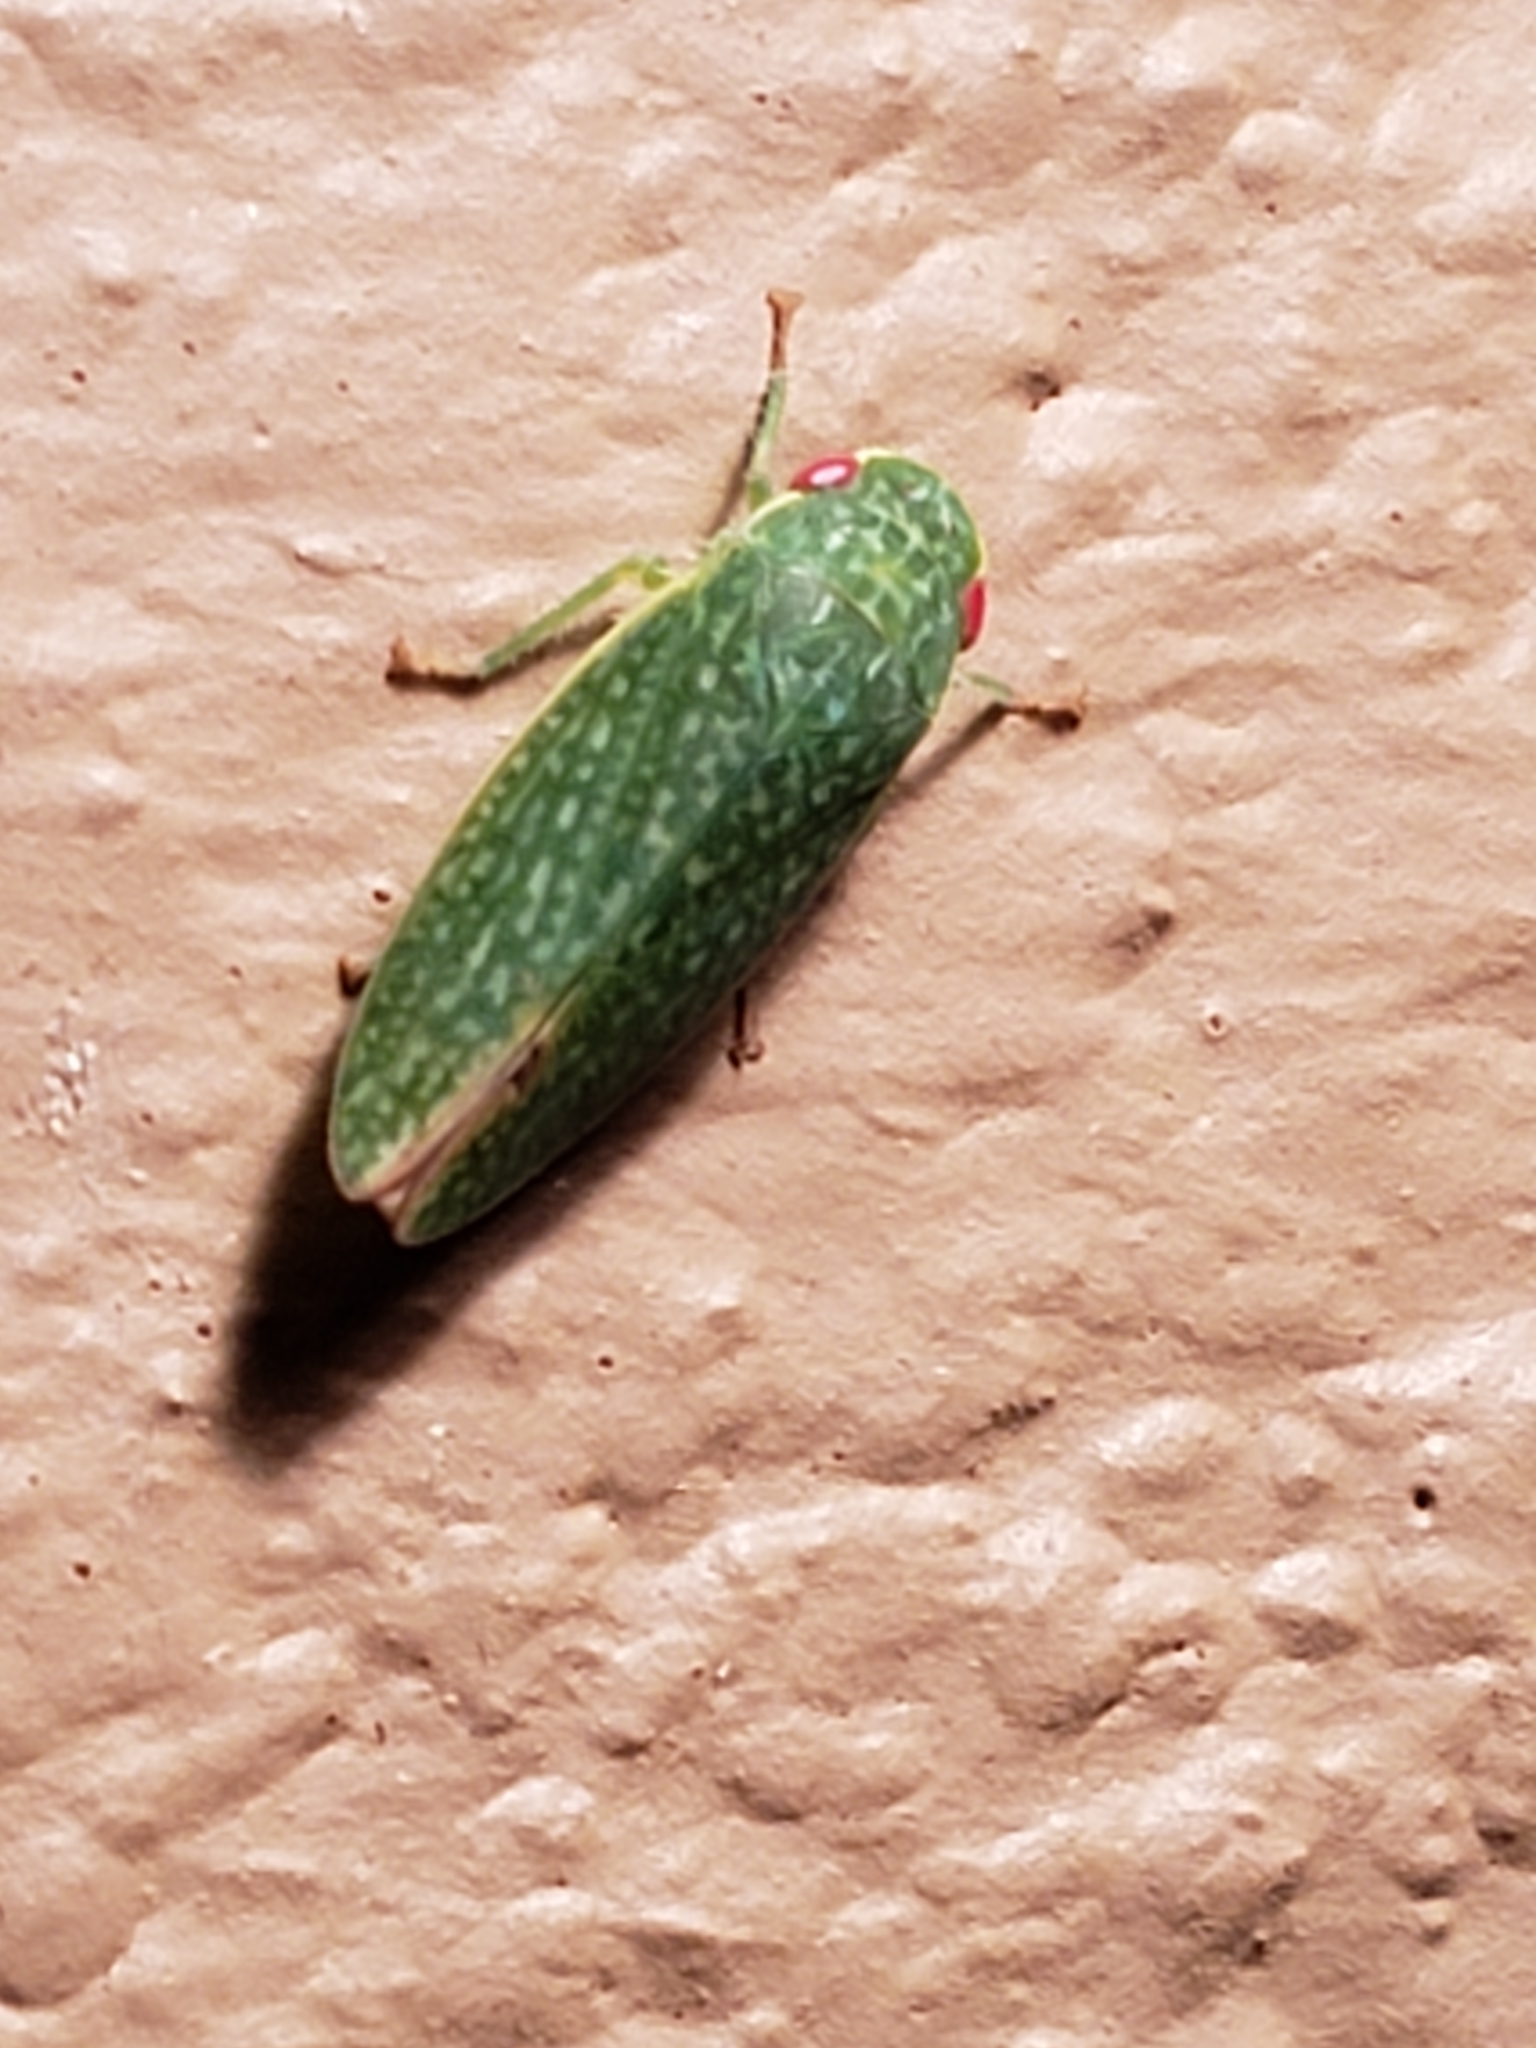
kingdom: Animalia
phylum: Arthropoda
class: Insecta
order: Hemiptera
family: Cicadellidae
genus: Rugosana
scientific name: Rugosana querci
